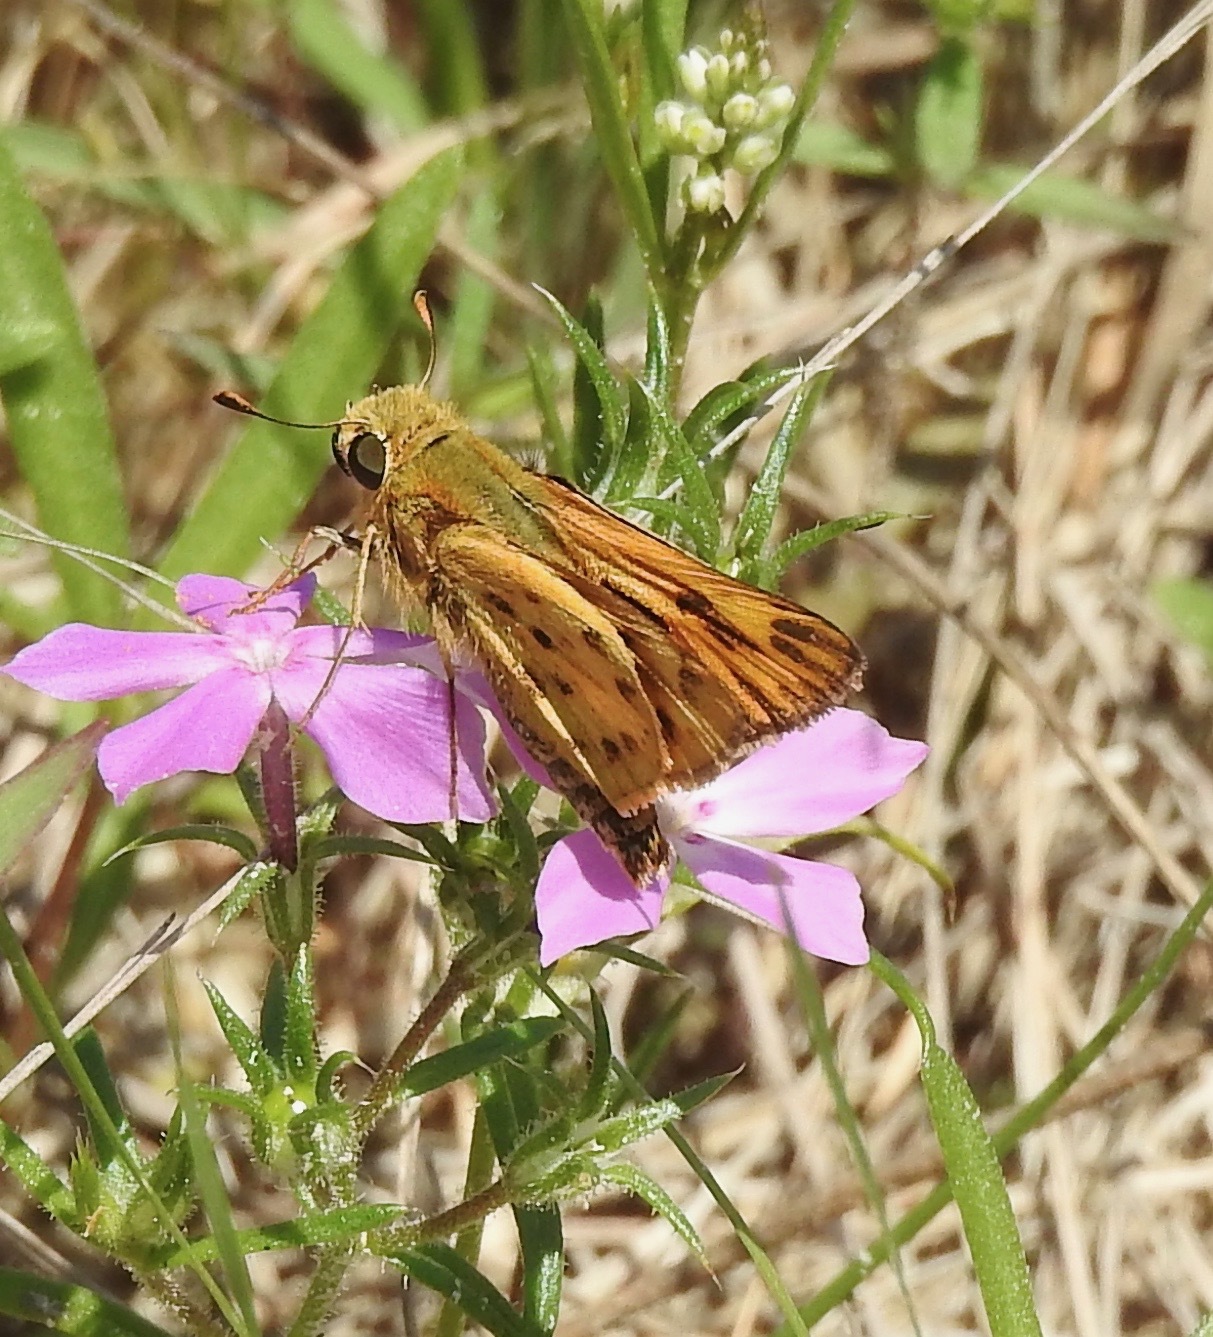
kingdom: Animalia
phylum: Arthropoda
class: Insecta
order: Lepidoptera
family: Hesperiidae
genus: Hylephila
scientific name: Hylephila phyleus
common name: Fiery skipper
